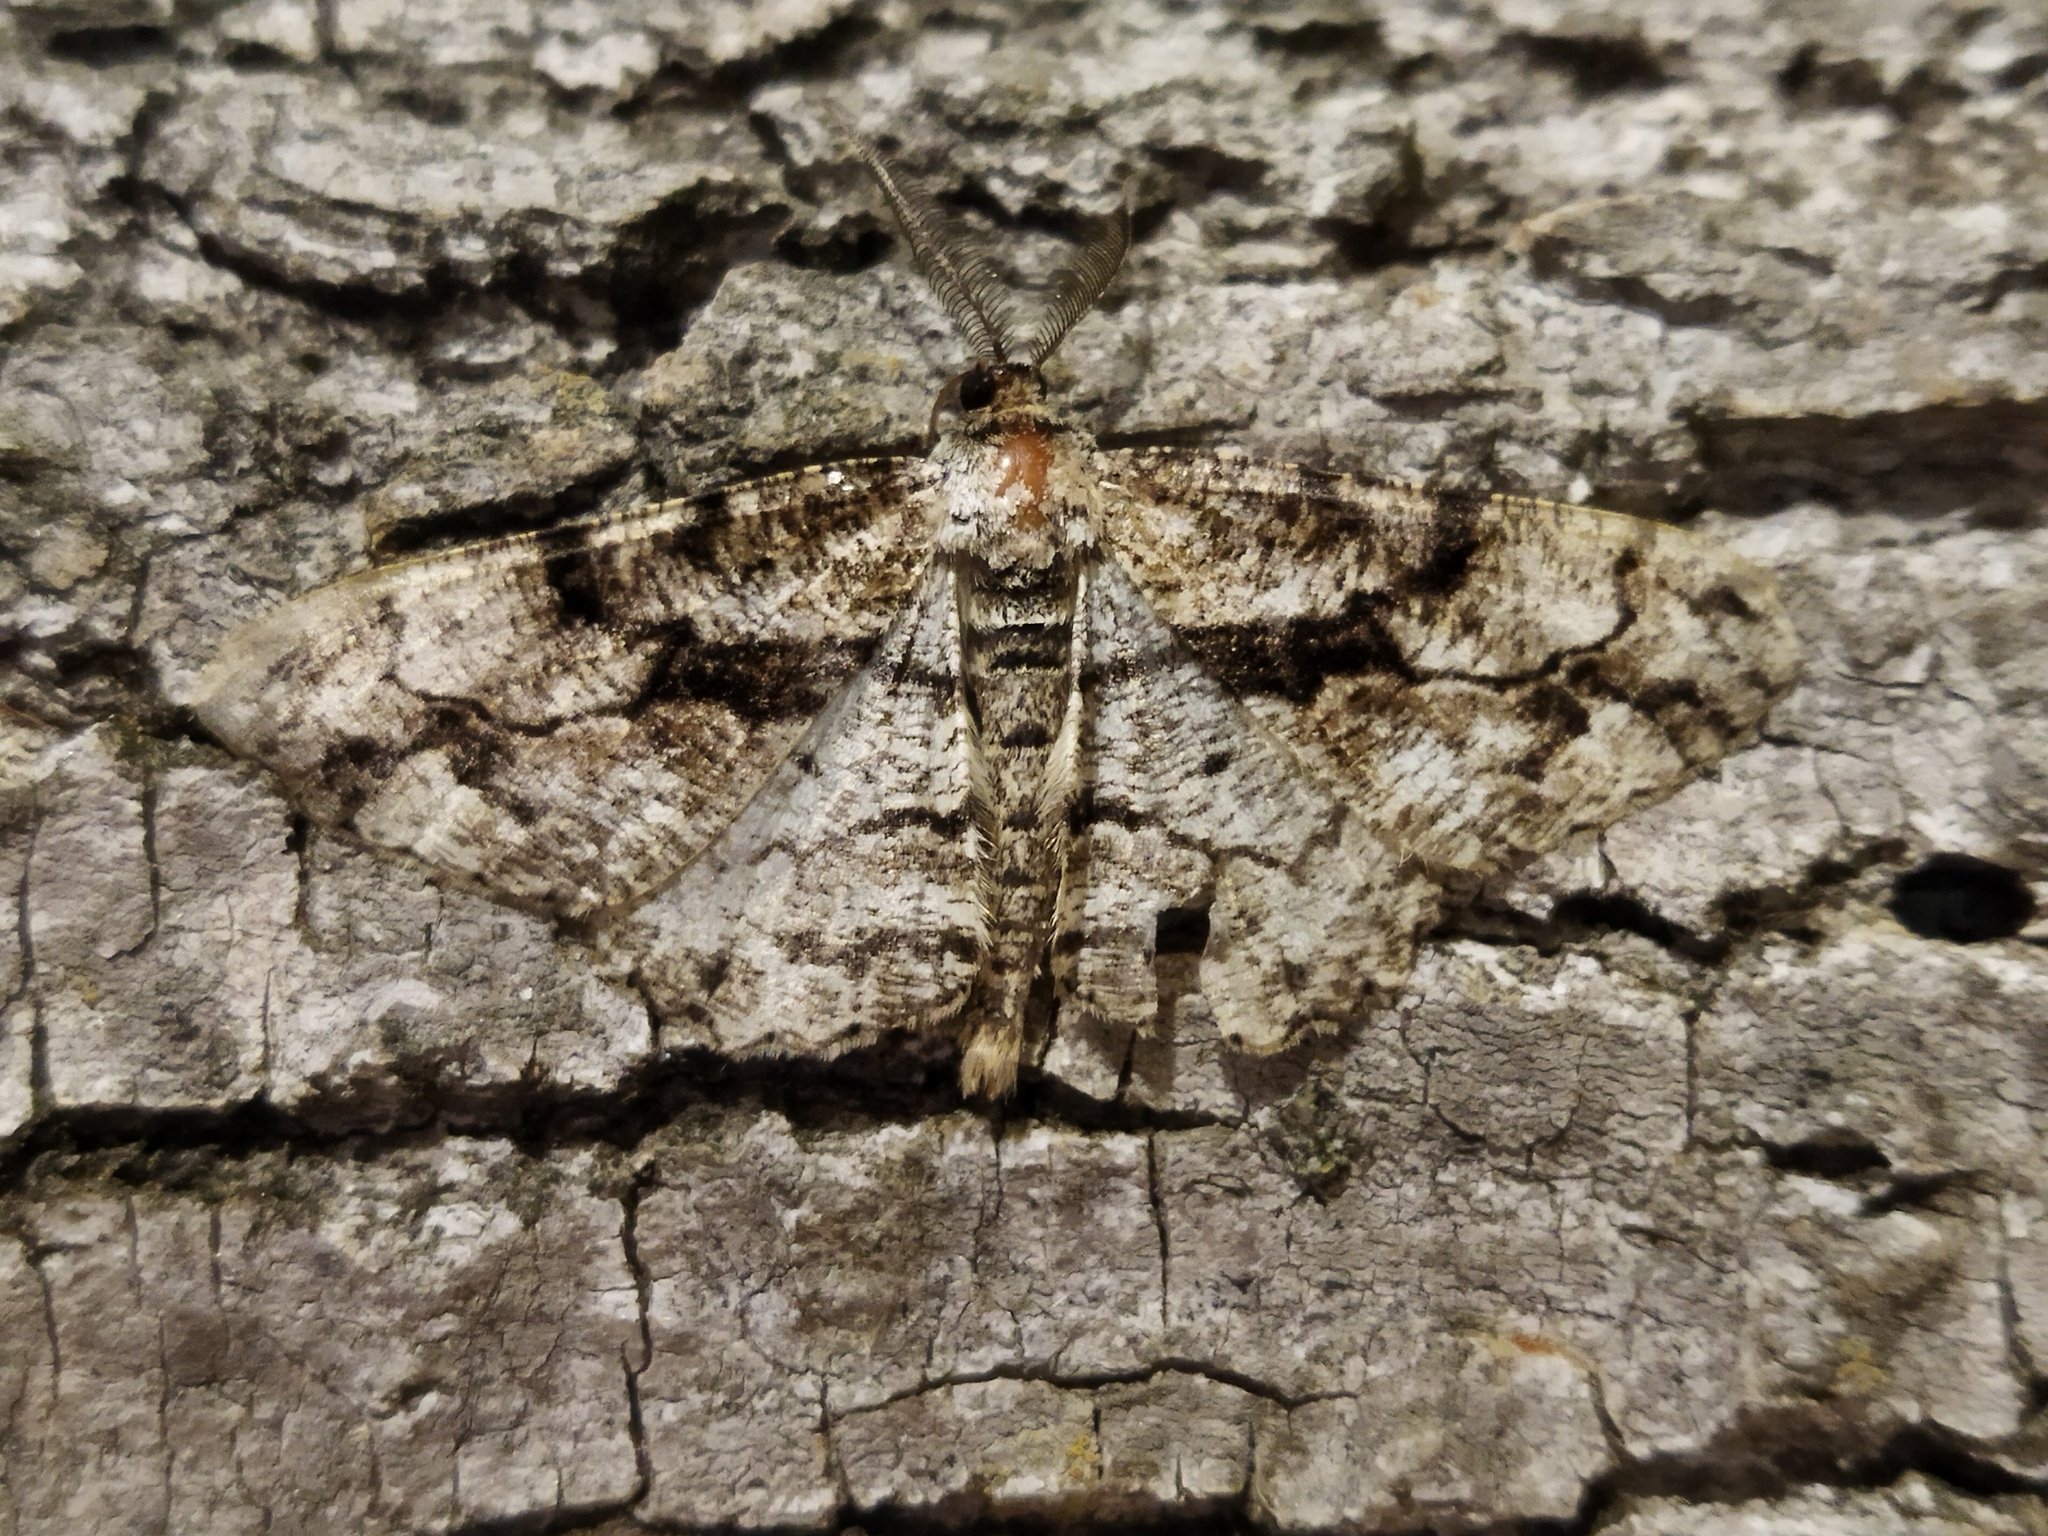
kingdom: Animalia
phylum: Arthropoda
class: Insecta
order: Lepidoptera
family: Geometridae
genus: Peribatodes
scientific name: Peribatodes umbraria
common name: Olive-tree beauty
